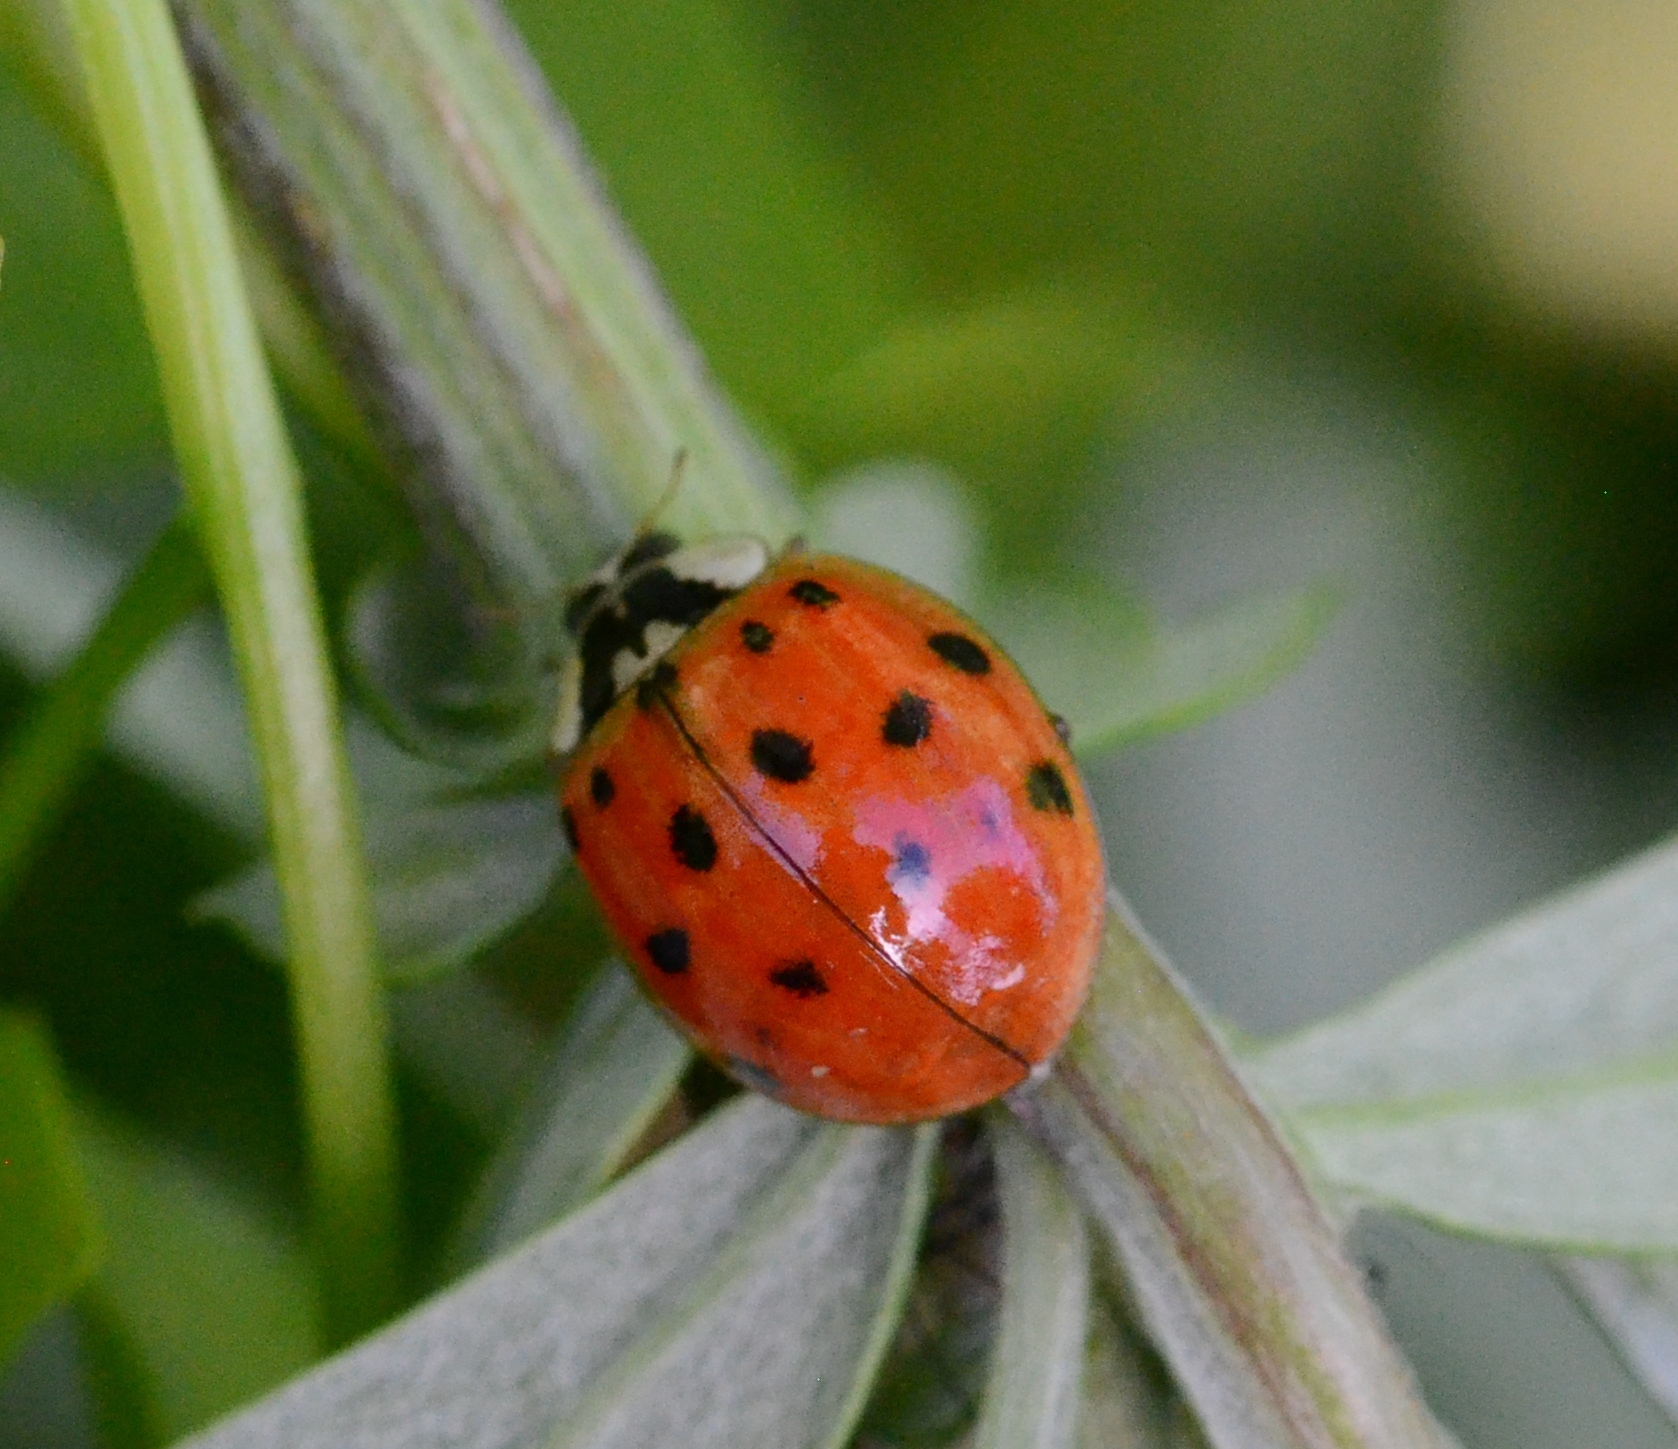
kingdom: Animalia
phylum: Arthropoda
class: Insecta
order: Coleoptera
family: Coccinellidae
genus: Harmonia
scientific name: Harmonia axyridis
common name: Harlequin ladybird
